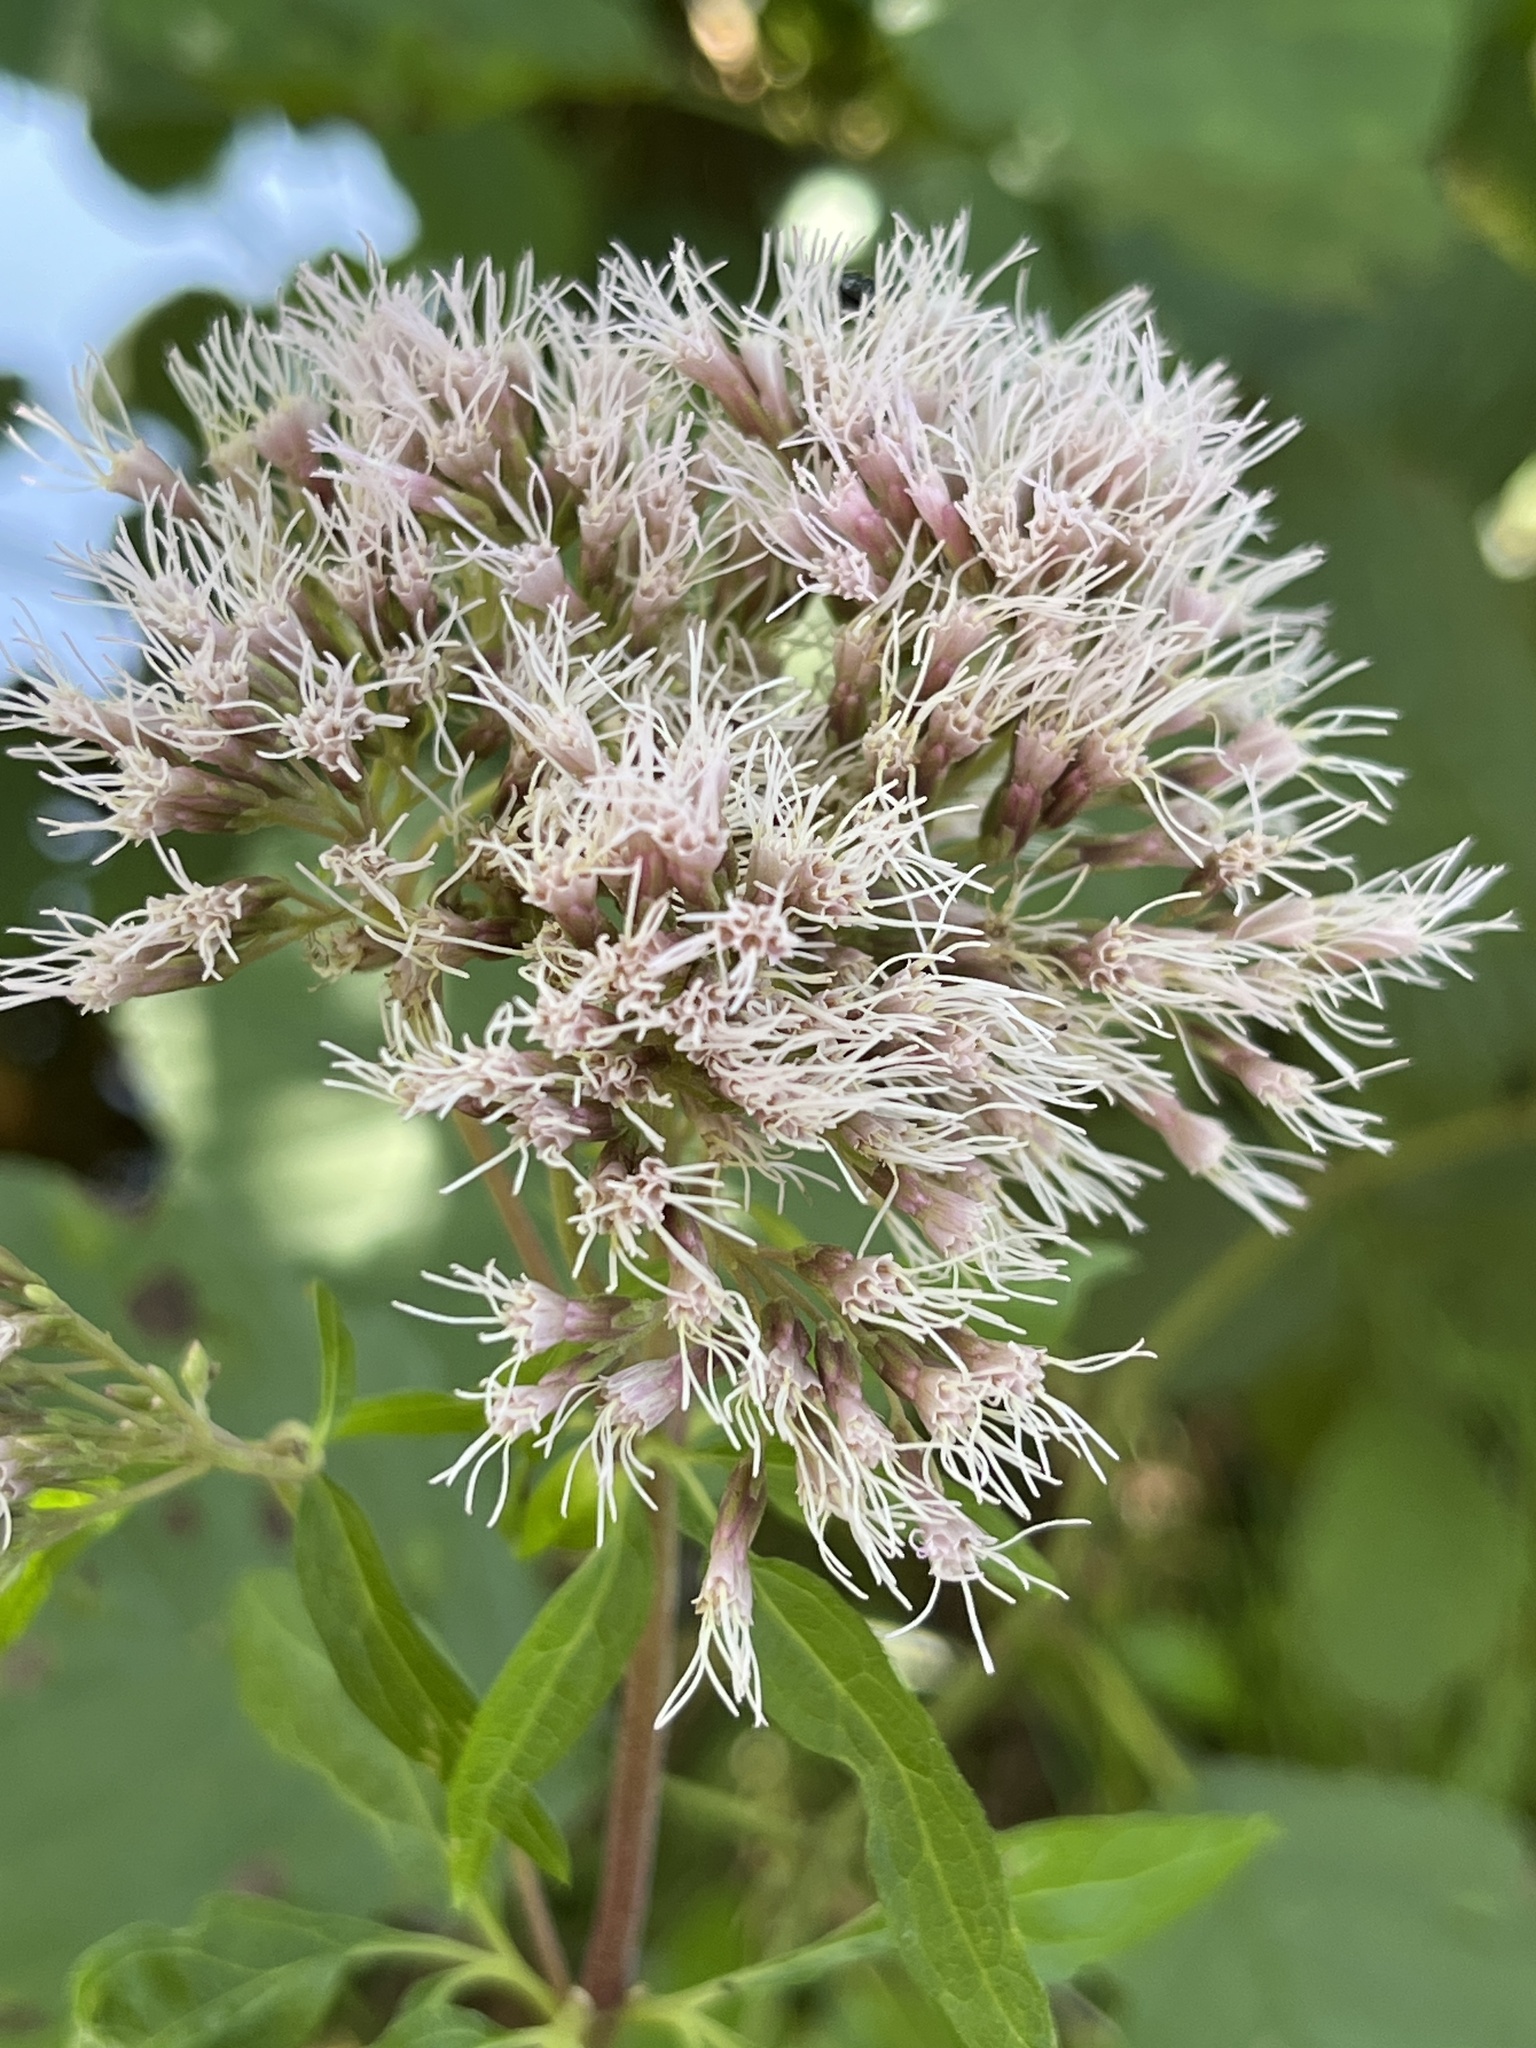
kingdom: Plantae
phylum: Tracheophyta
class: Magnoliopsida
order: Asterales
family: Asteraceae
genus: Eupatorium
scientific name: Eupatorium cannabinum
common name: Hemp-agrimony
